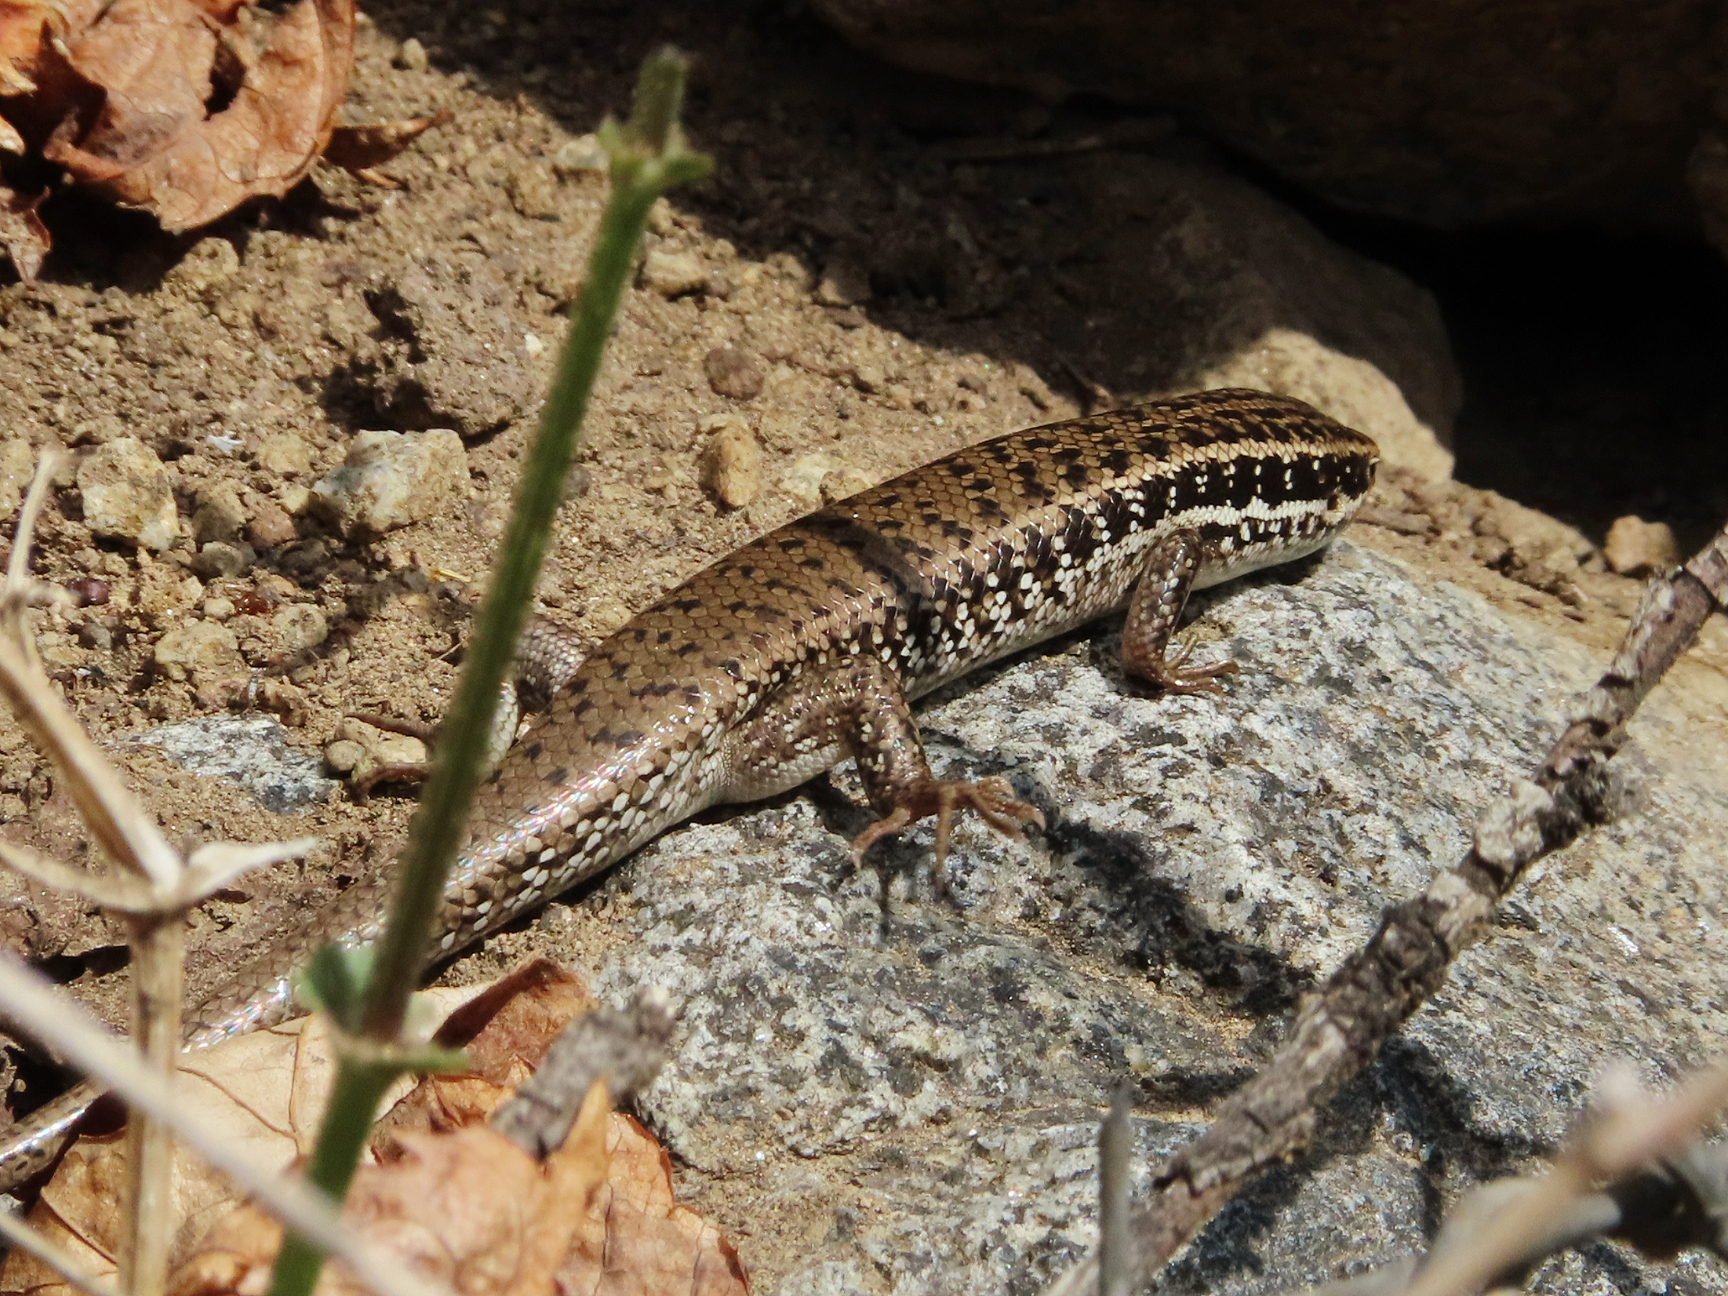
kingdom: Animalia
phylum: Chordata
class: Squamata
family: Scincidae
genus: Heremites
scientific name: Heremites septemtaeniatus
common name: Golden grass mabuya
